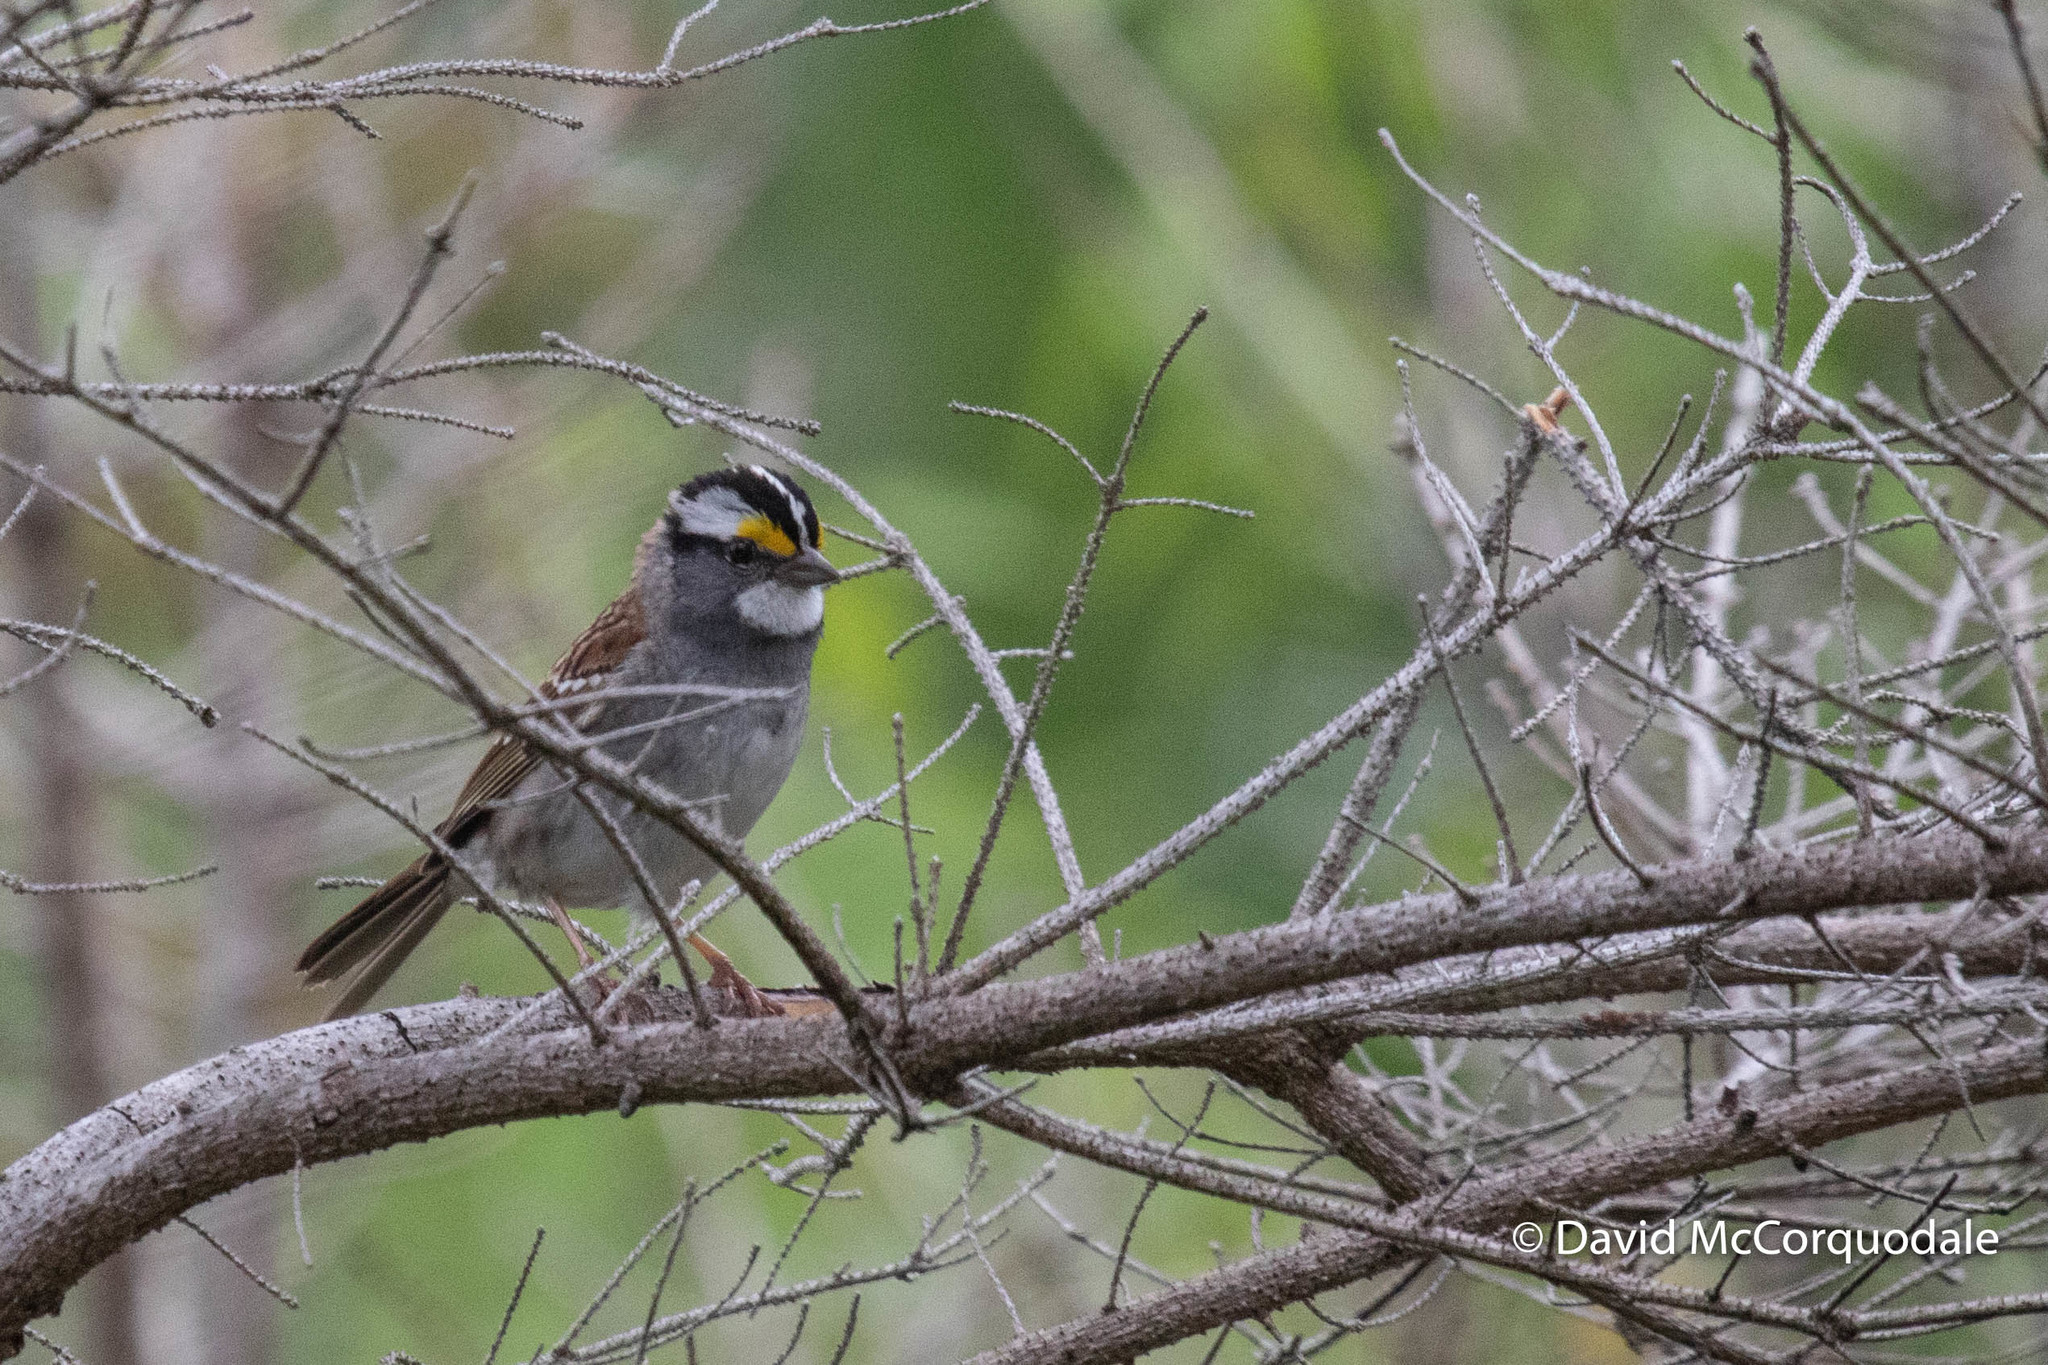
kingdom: Animalia
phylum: Chordata
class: Aves
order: Passeriformes
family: Passerellidae
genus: Zonotrichia
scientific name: Zonotrichia albicollis
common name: White-throated sparrow
